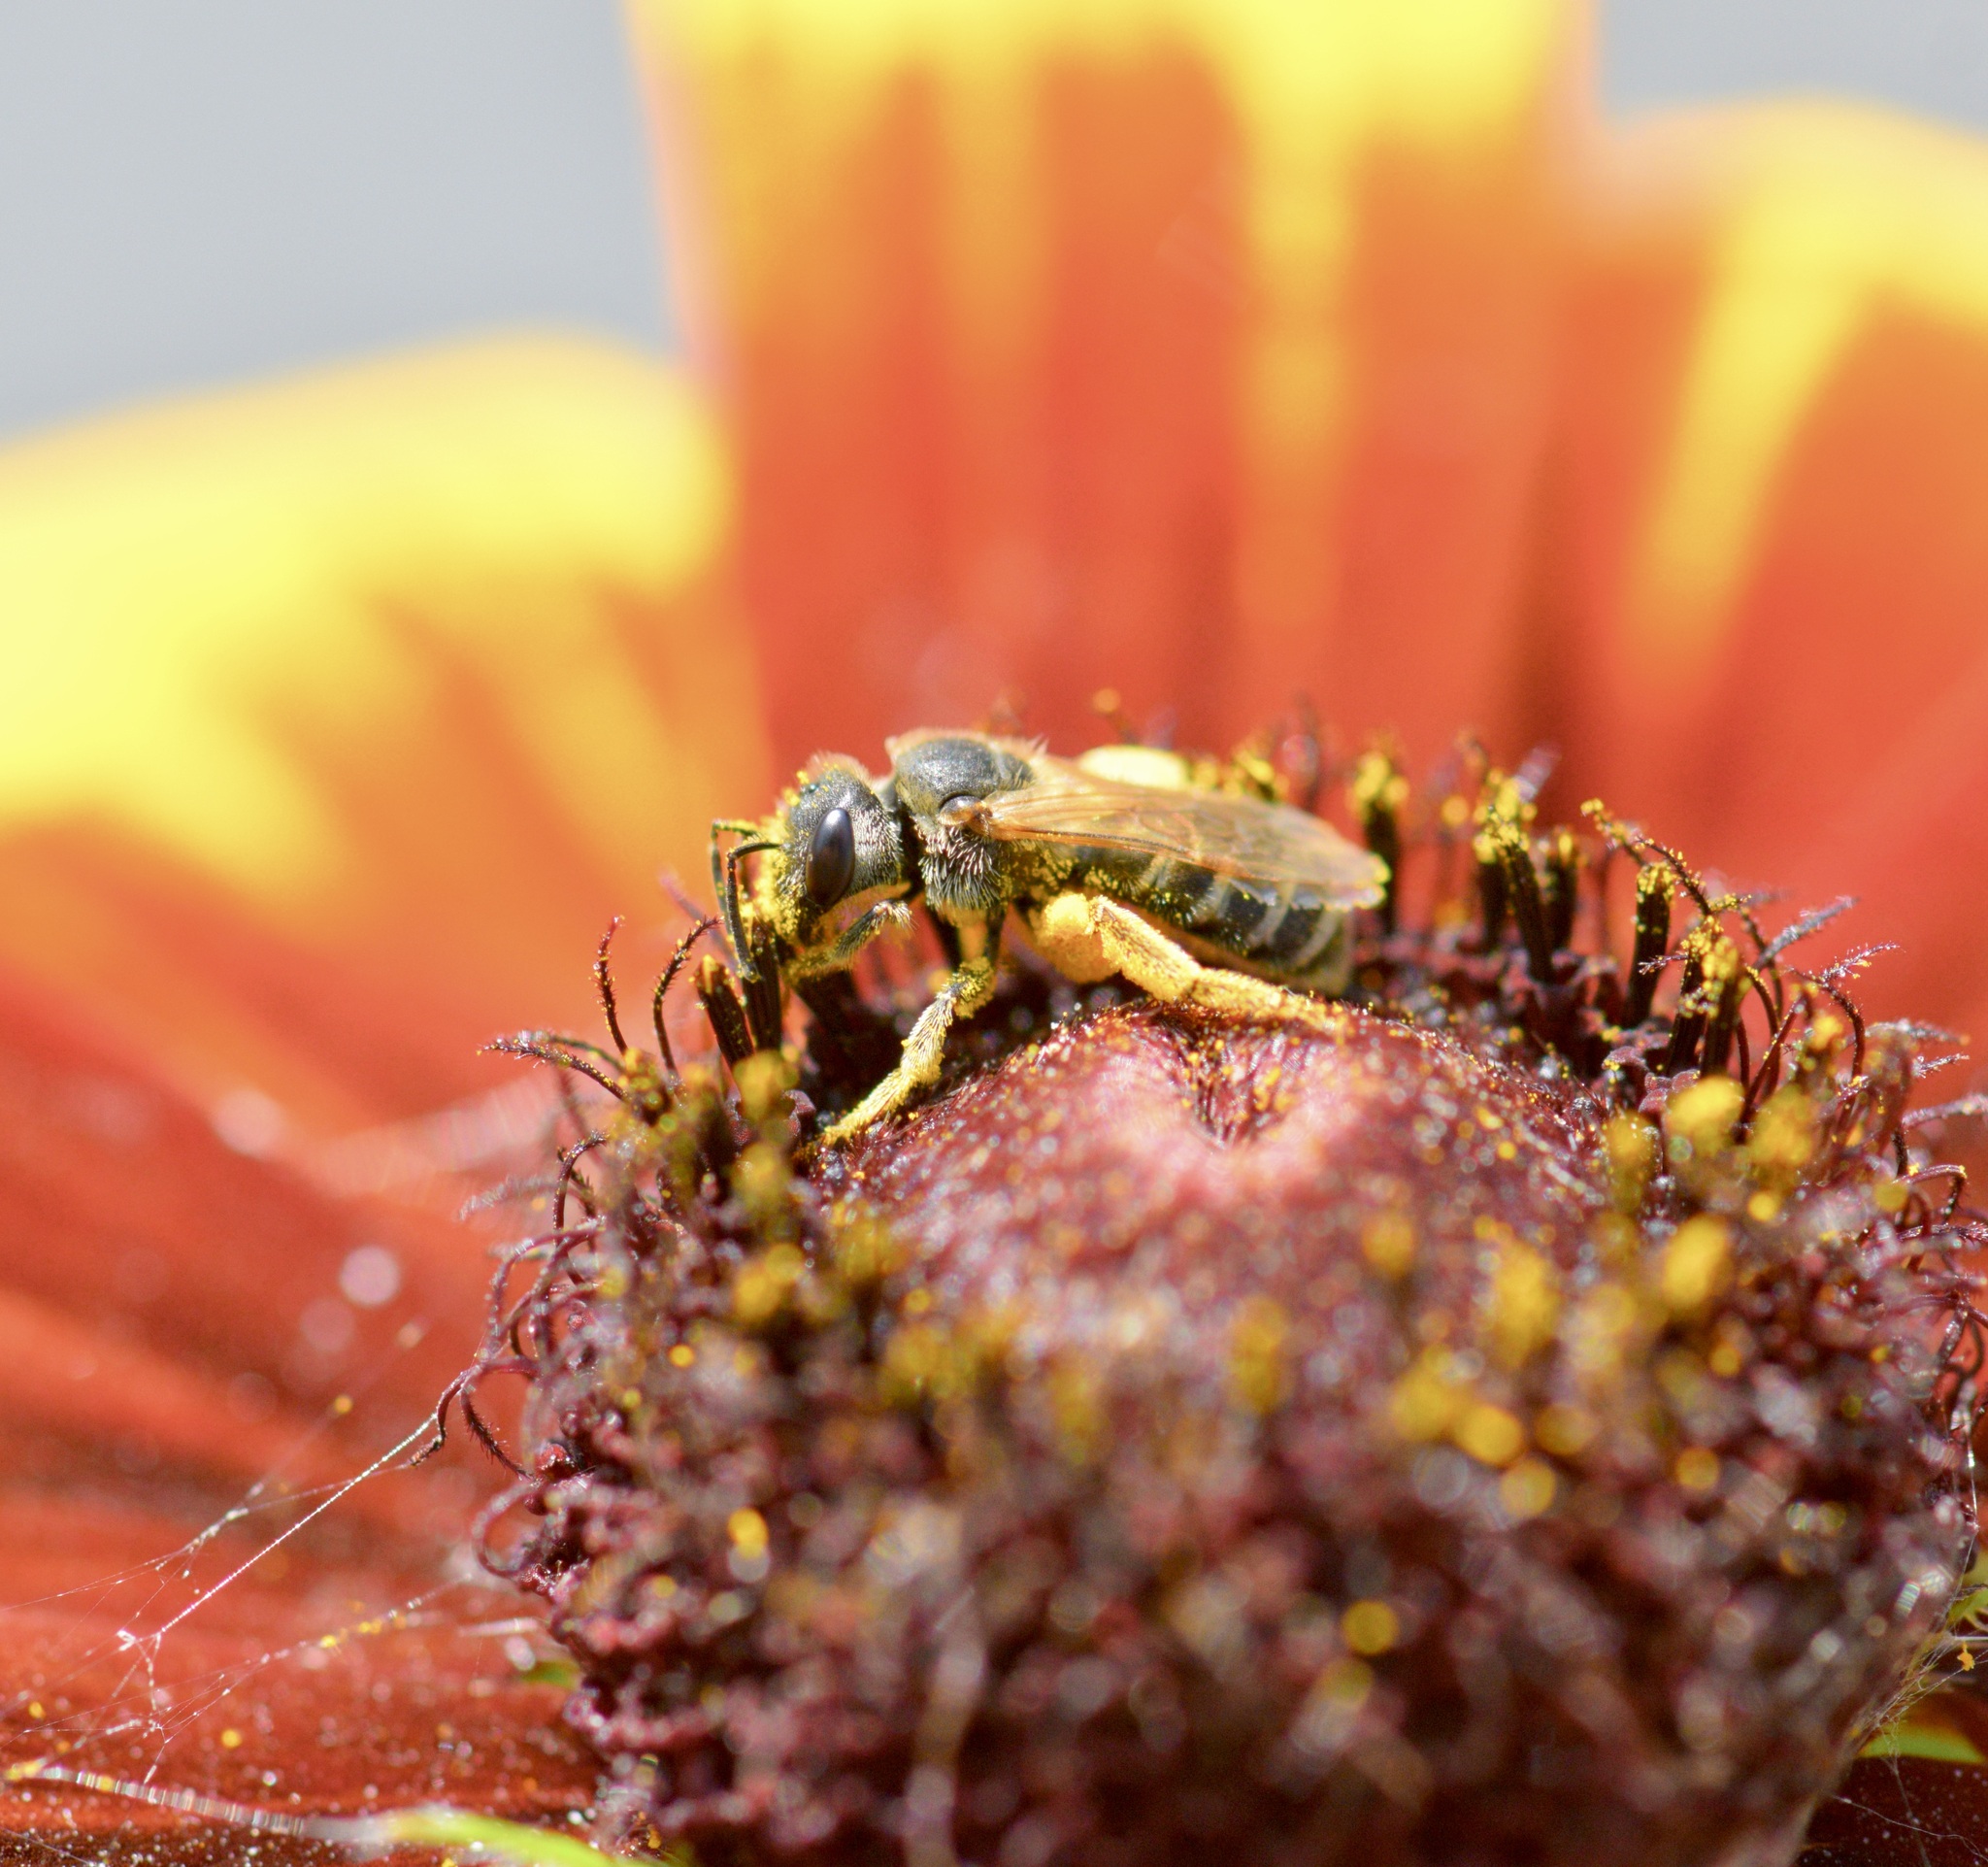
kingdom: Animalia
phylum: Arthropoda
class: Insecta
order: Hymenoptera
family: Halictidae
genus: Halictus
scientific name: Halictus ligatus
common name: Ligated furrow bee
